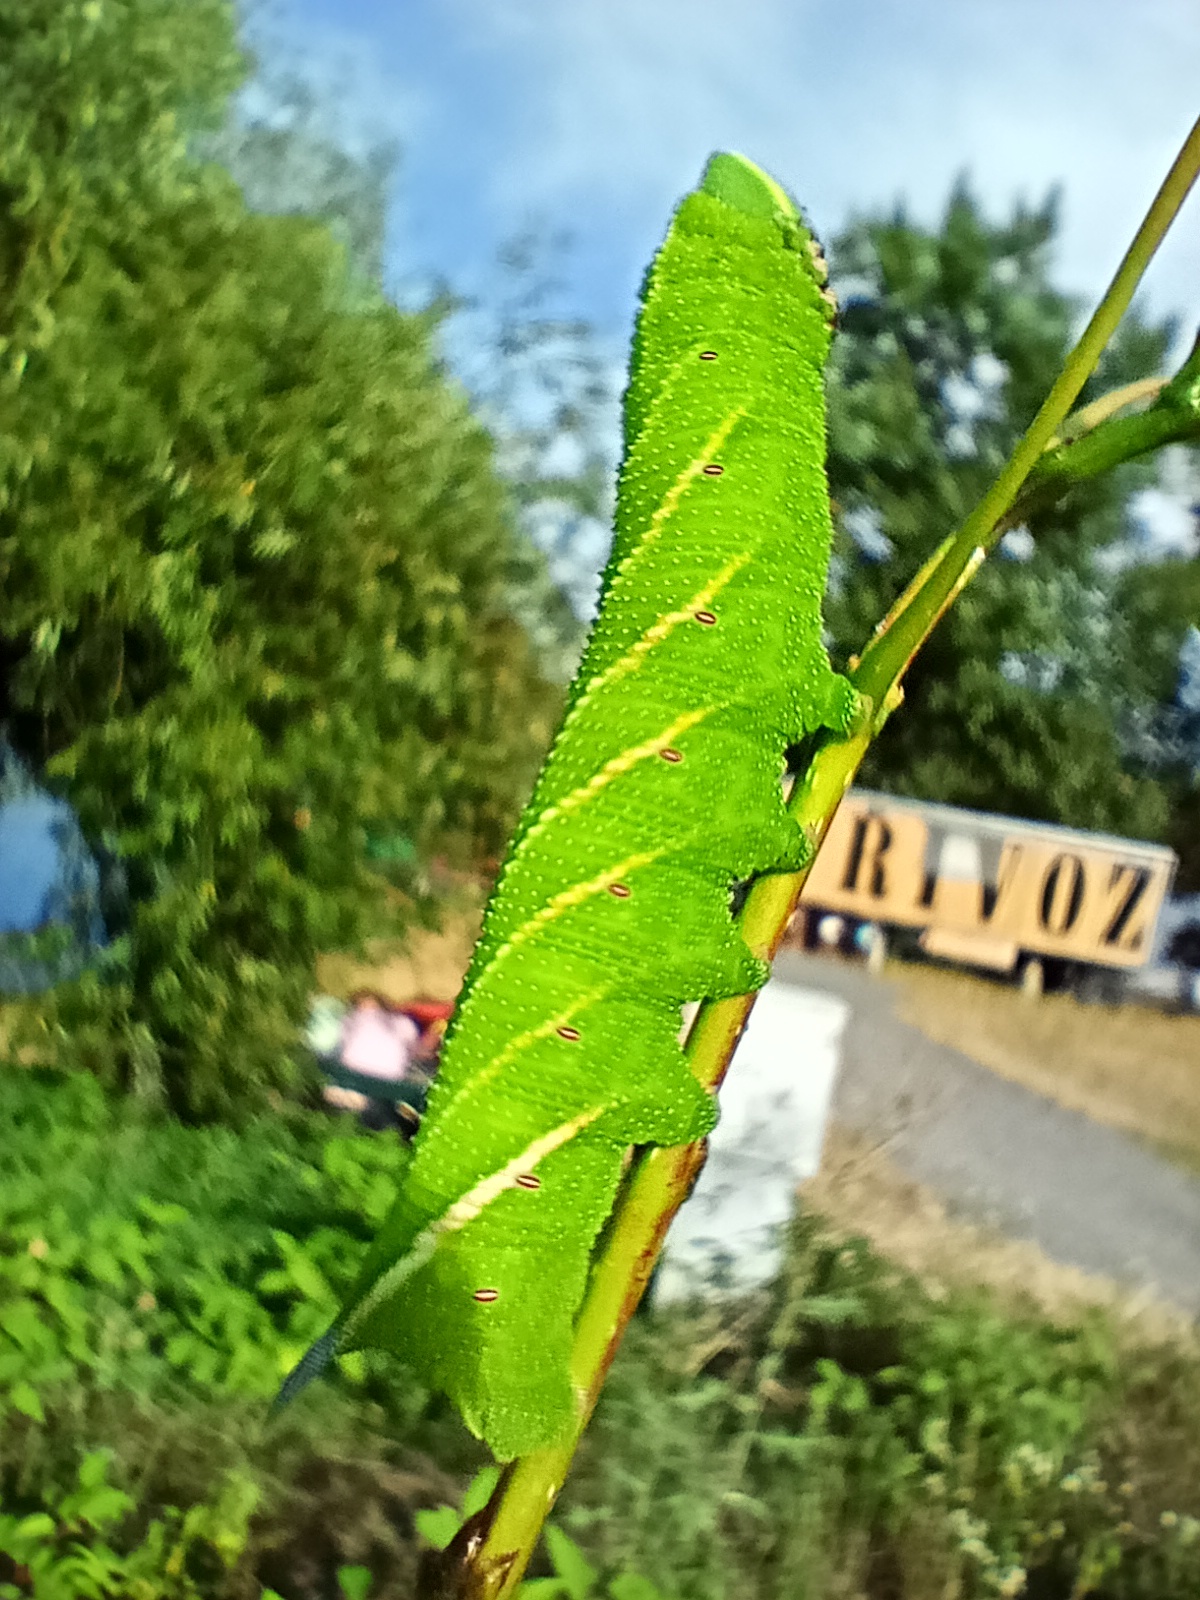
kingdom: Animalia
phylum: Arthropoda
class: Insecta
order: Lepidoptera
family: Sphingidae
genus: Smerinthus
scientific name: Smerinthus ocellata
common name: Eyed hawk-moth
